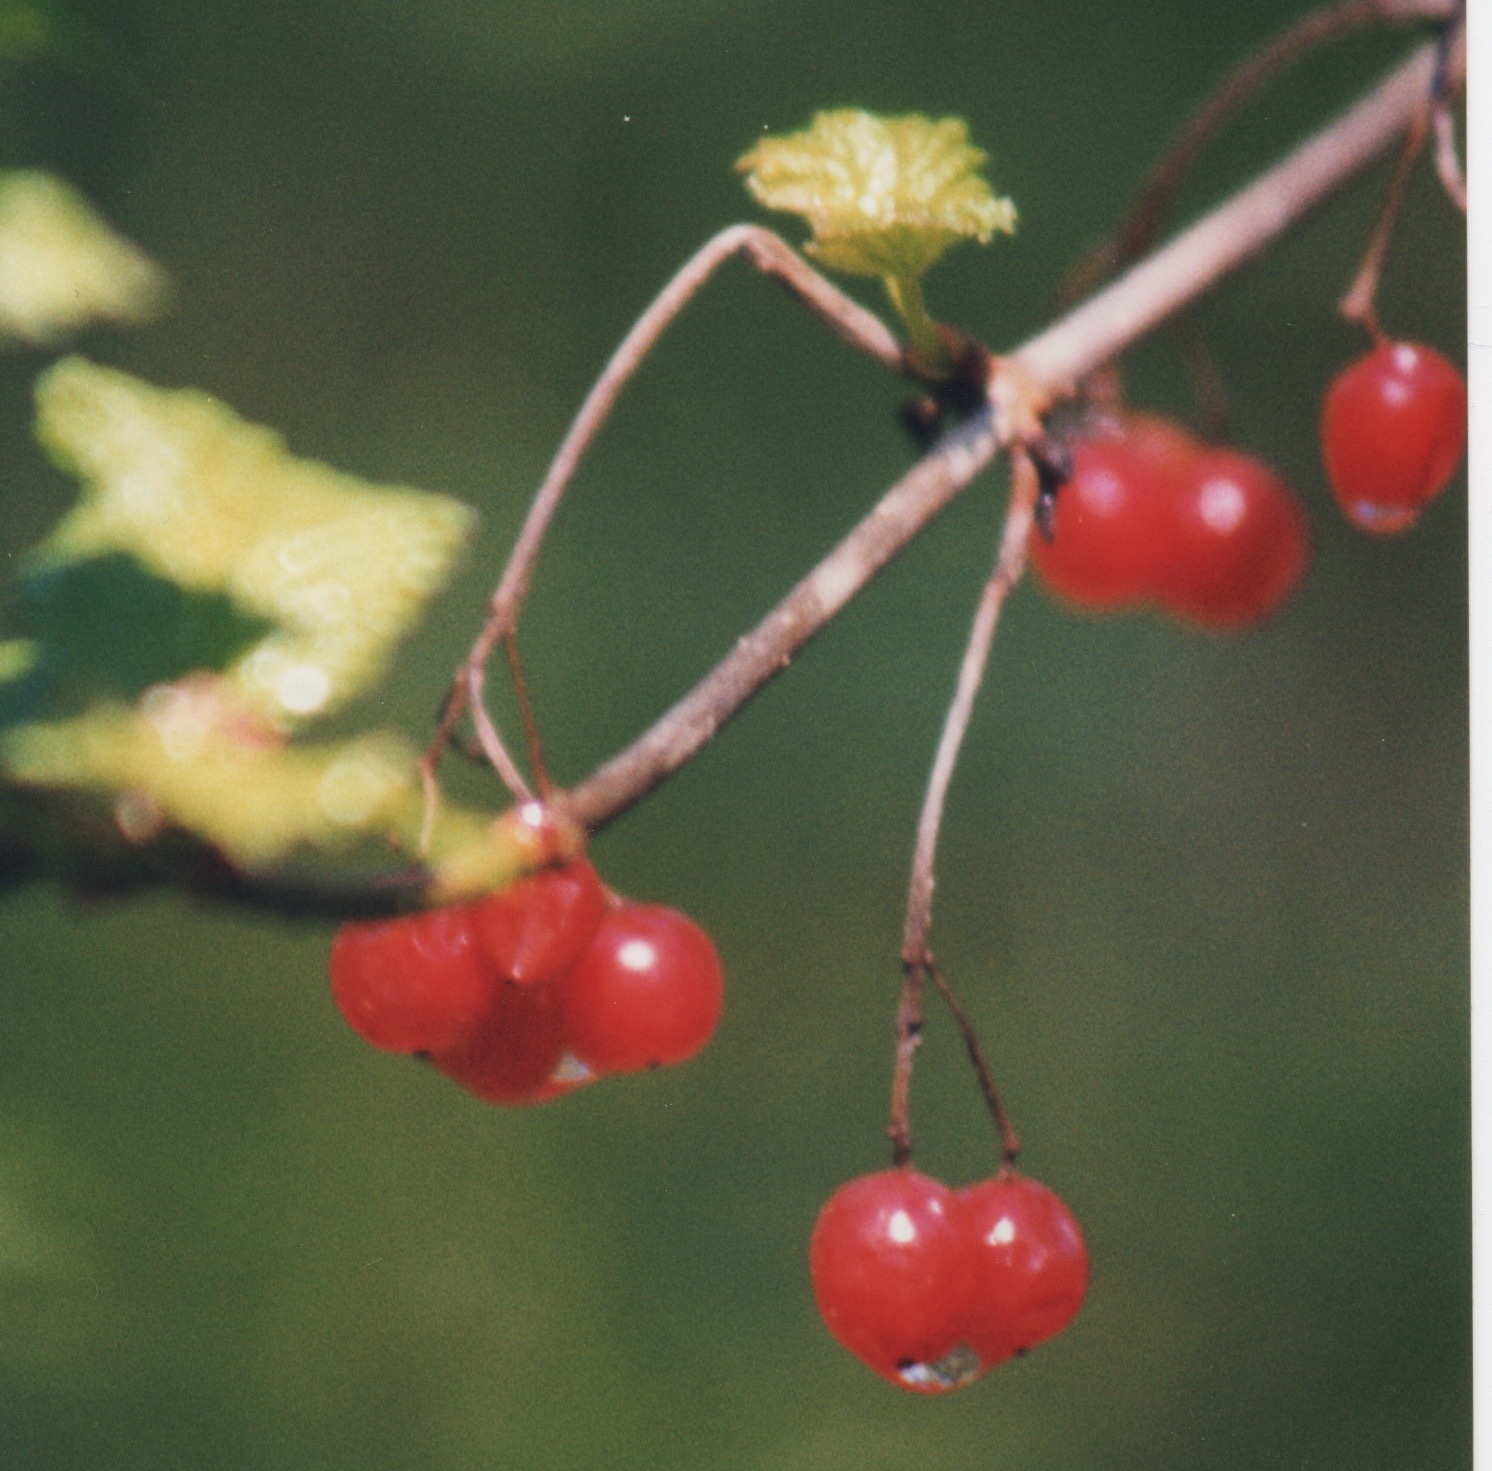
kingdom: Plantae
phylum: Tracheophyta
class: Magnoliopsida
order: Dipsacales
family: Viburnaceae
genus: Viburnum
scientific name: Viburnum edule
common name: Mooseberry
